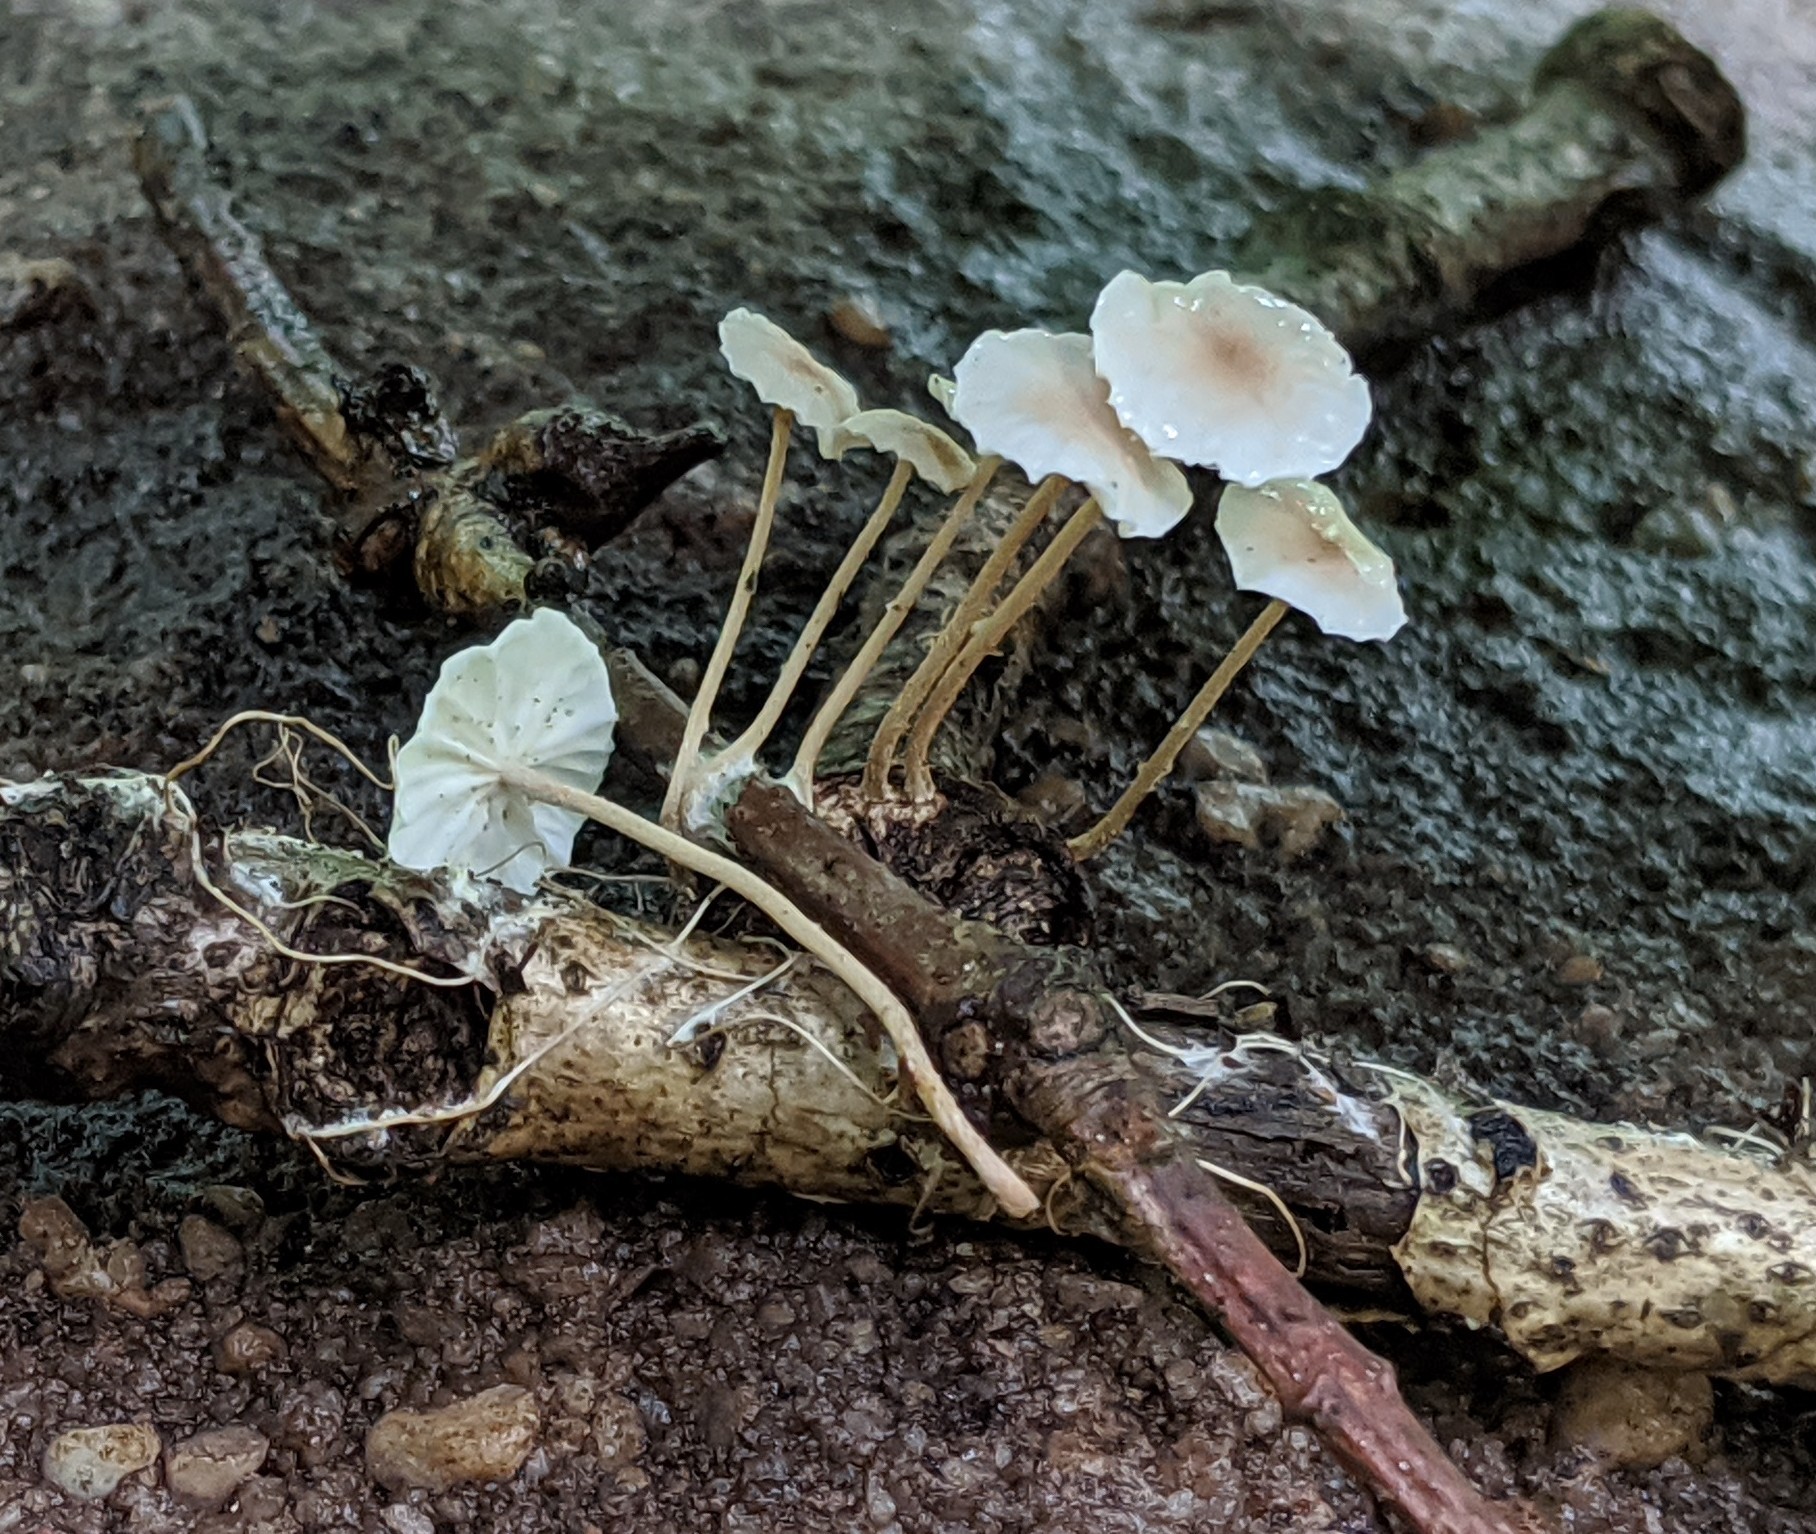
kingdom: Fungi
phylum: Basidiomycota
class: Agaricomycetes
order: Agaricales
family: Omphalotaceae
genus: Mycetinis
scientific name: Mycetinis opacus
